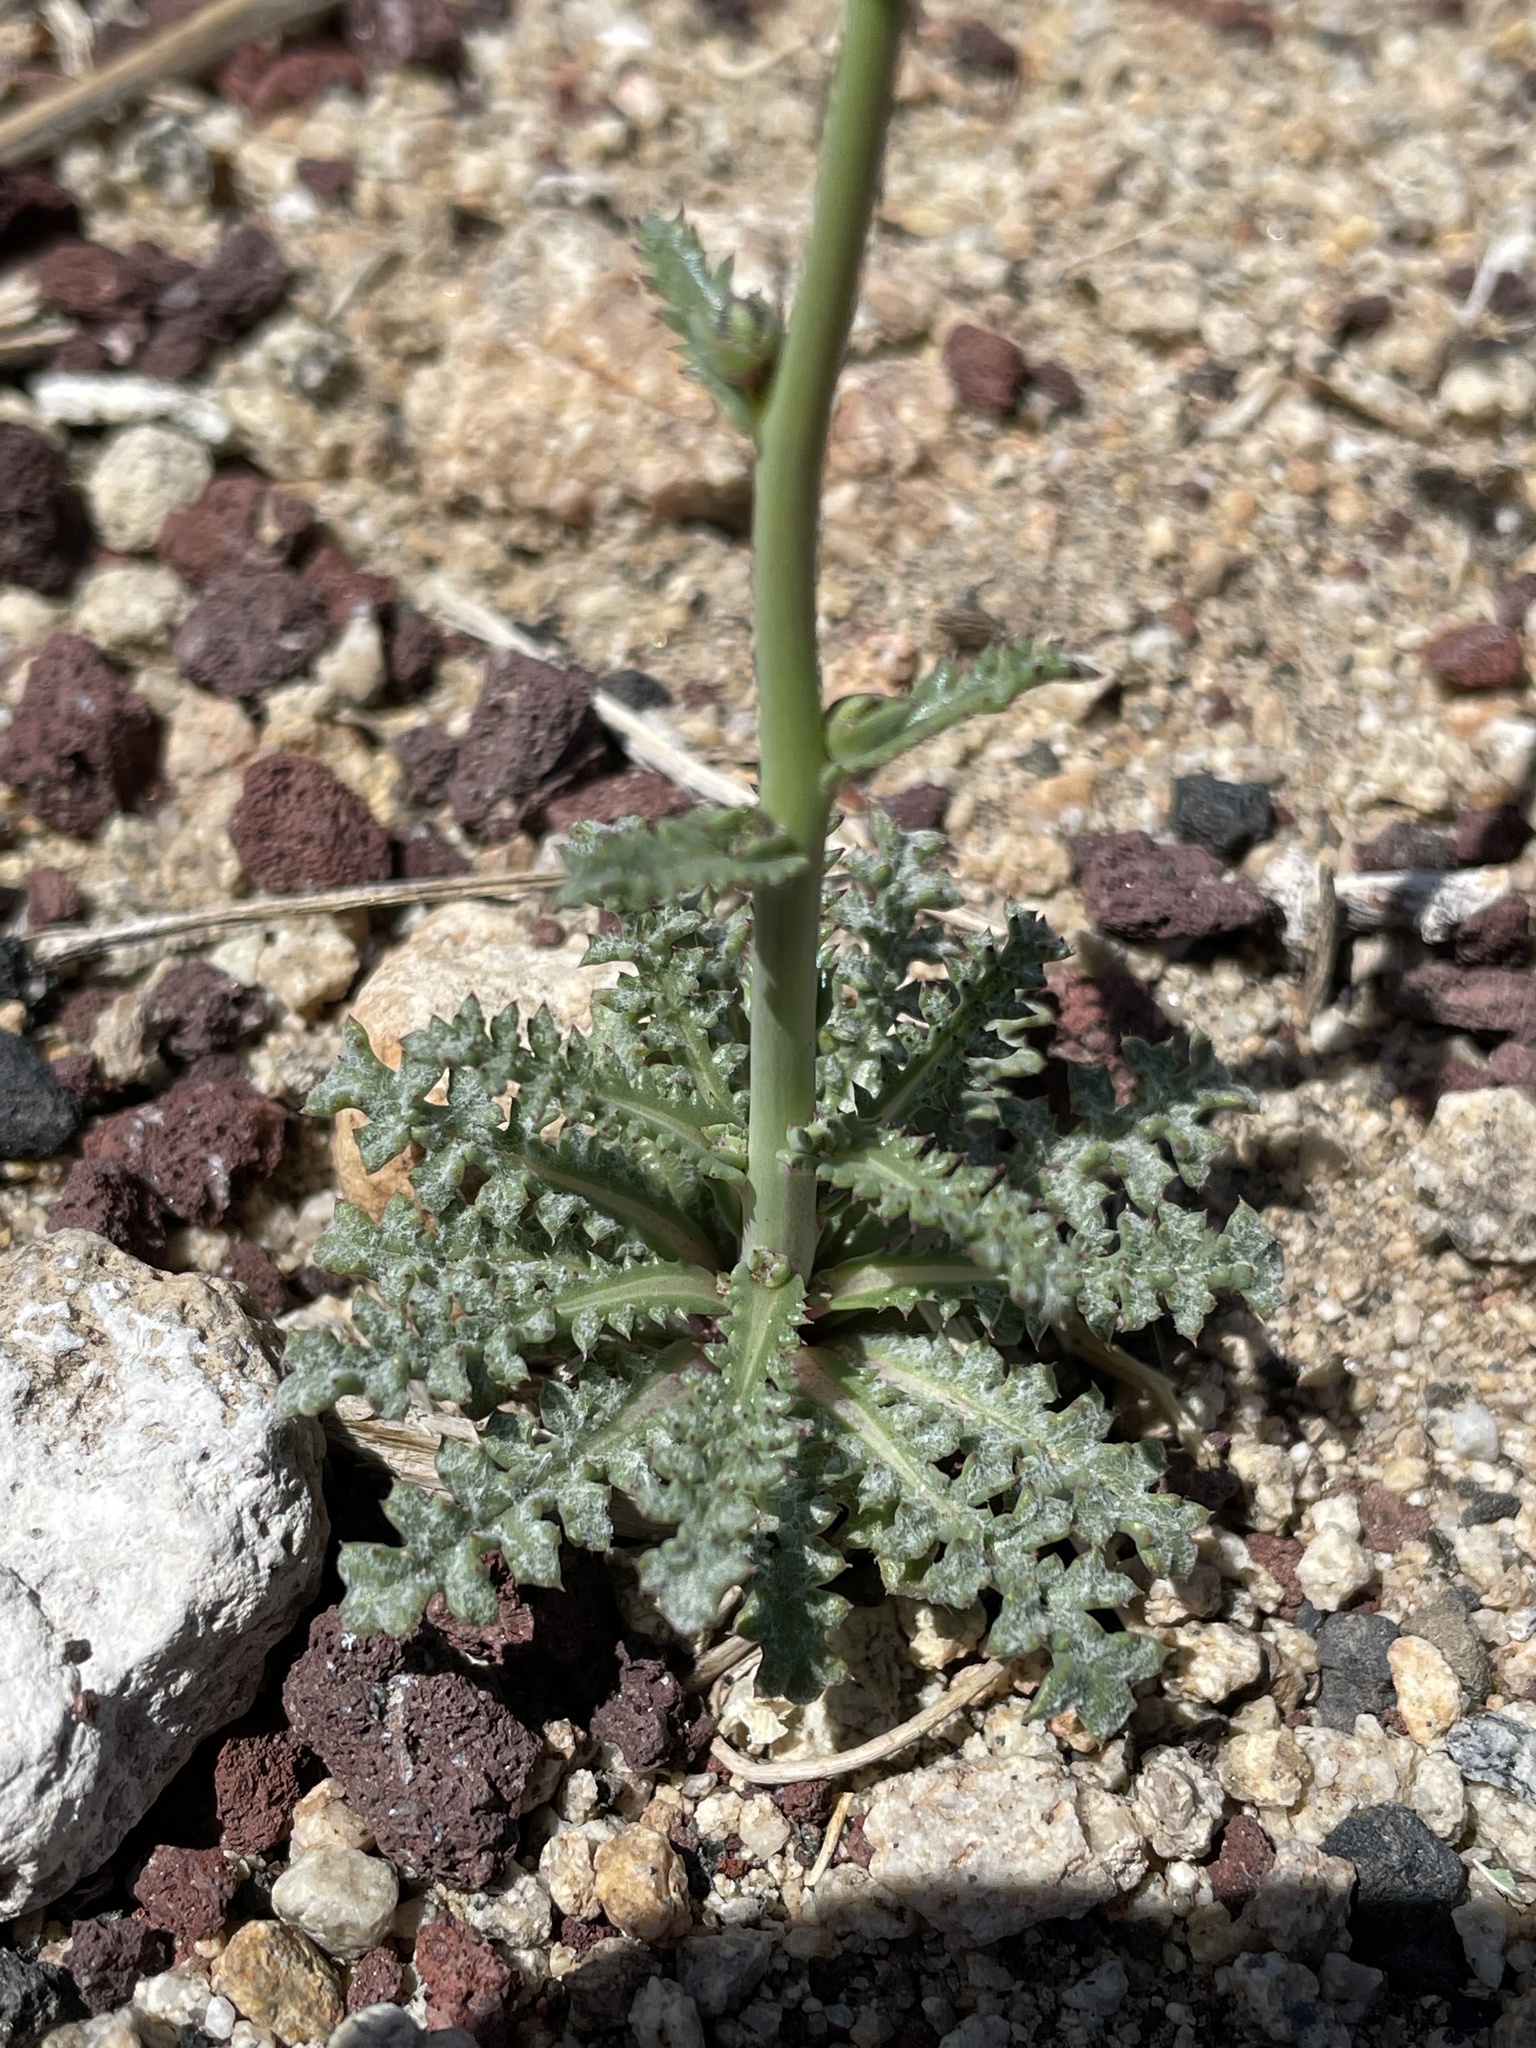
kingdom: Plantae
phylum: Tracheophyta
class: Magnoliopsida
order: Ericales
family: Polemoniaceae
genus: Gilia
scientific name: Gilia sinuata
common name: Rosy gilia
